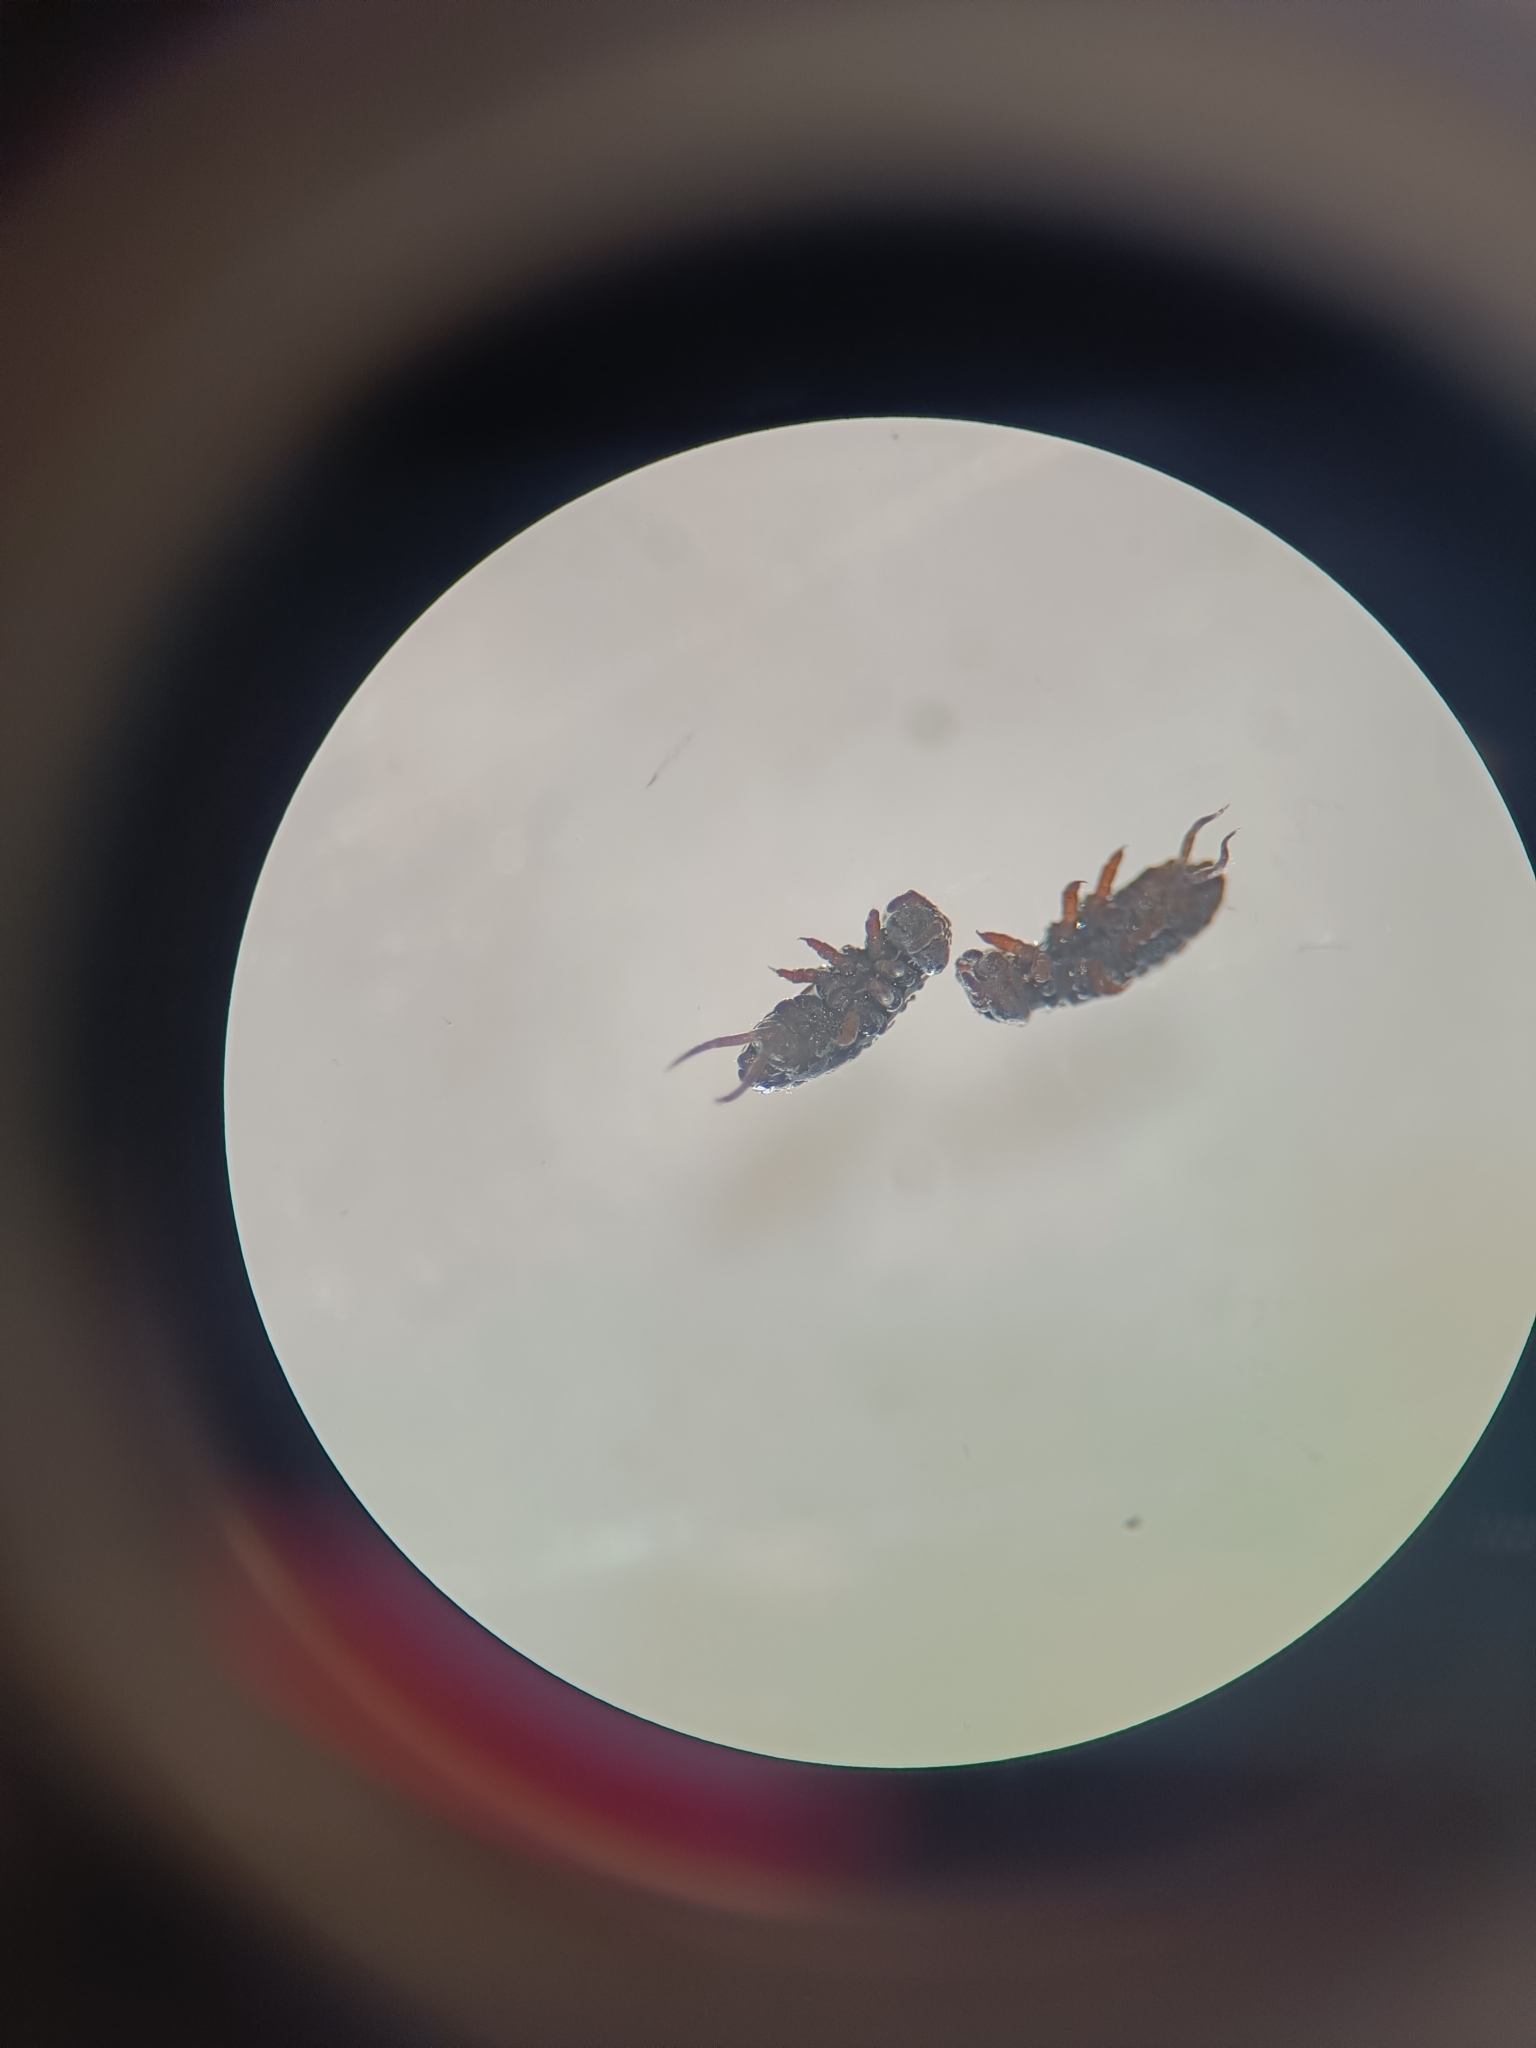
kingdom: Animalia
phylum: Arthropoda
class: Collembola
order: Poduromorpha
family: Poduridae
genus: Podura
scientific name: Podura aquatica
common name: Water springtail
